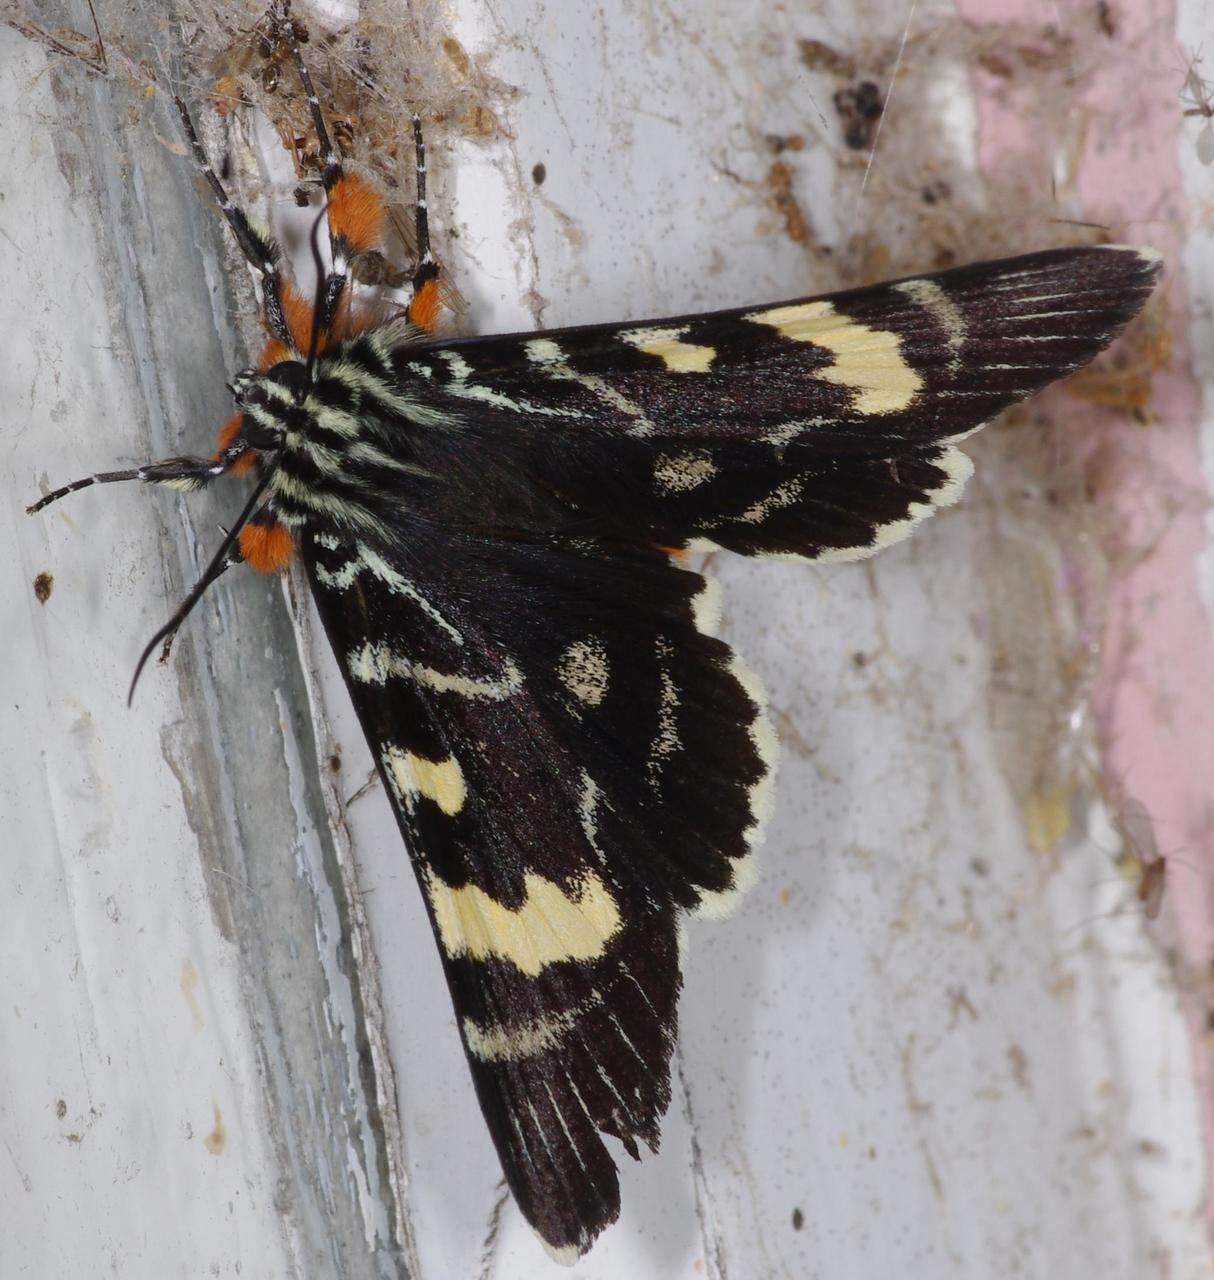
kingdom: Animalia
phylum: Arthropoda
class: Insecta
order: Lepidoptera
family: Noctuidae
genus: Phalaenoides
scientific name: Phalaenoides glycinae
